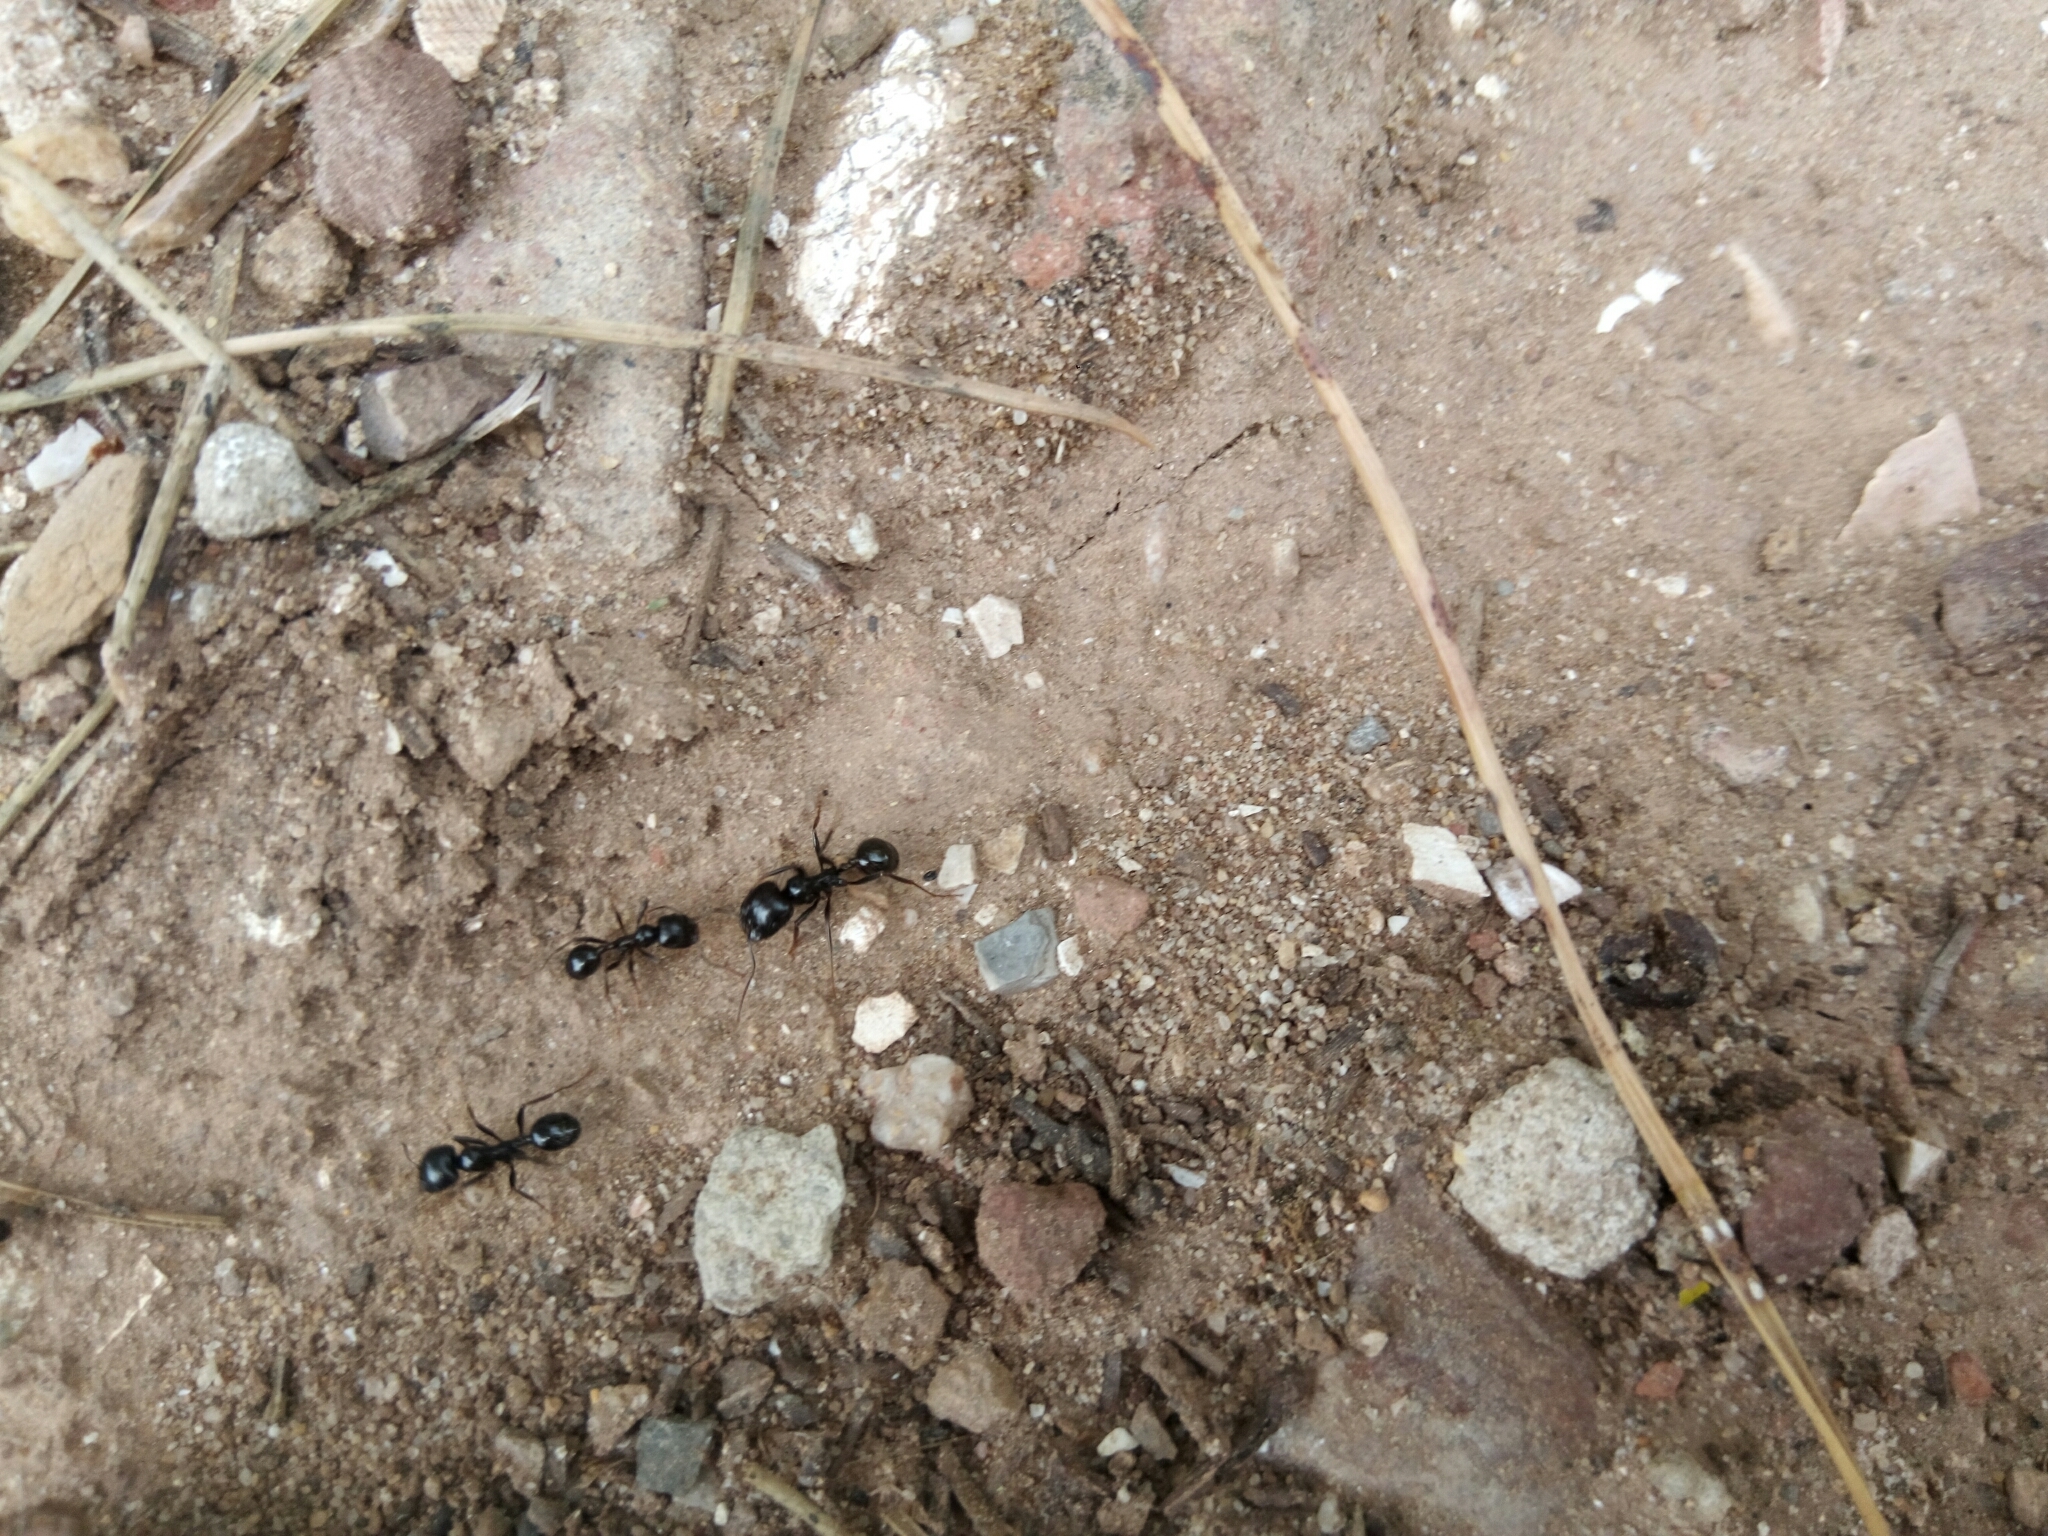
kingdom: Animalia
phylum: Arthropoda
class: Insecta
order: Hymenoptera
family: Formicidae
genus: Messor
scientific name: Messor barbarus
